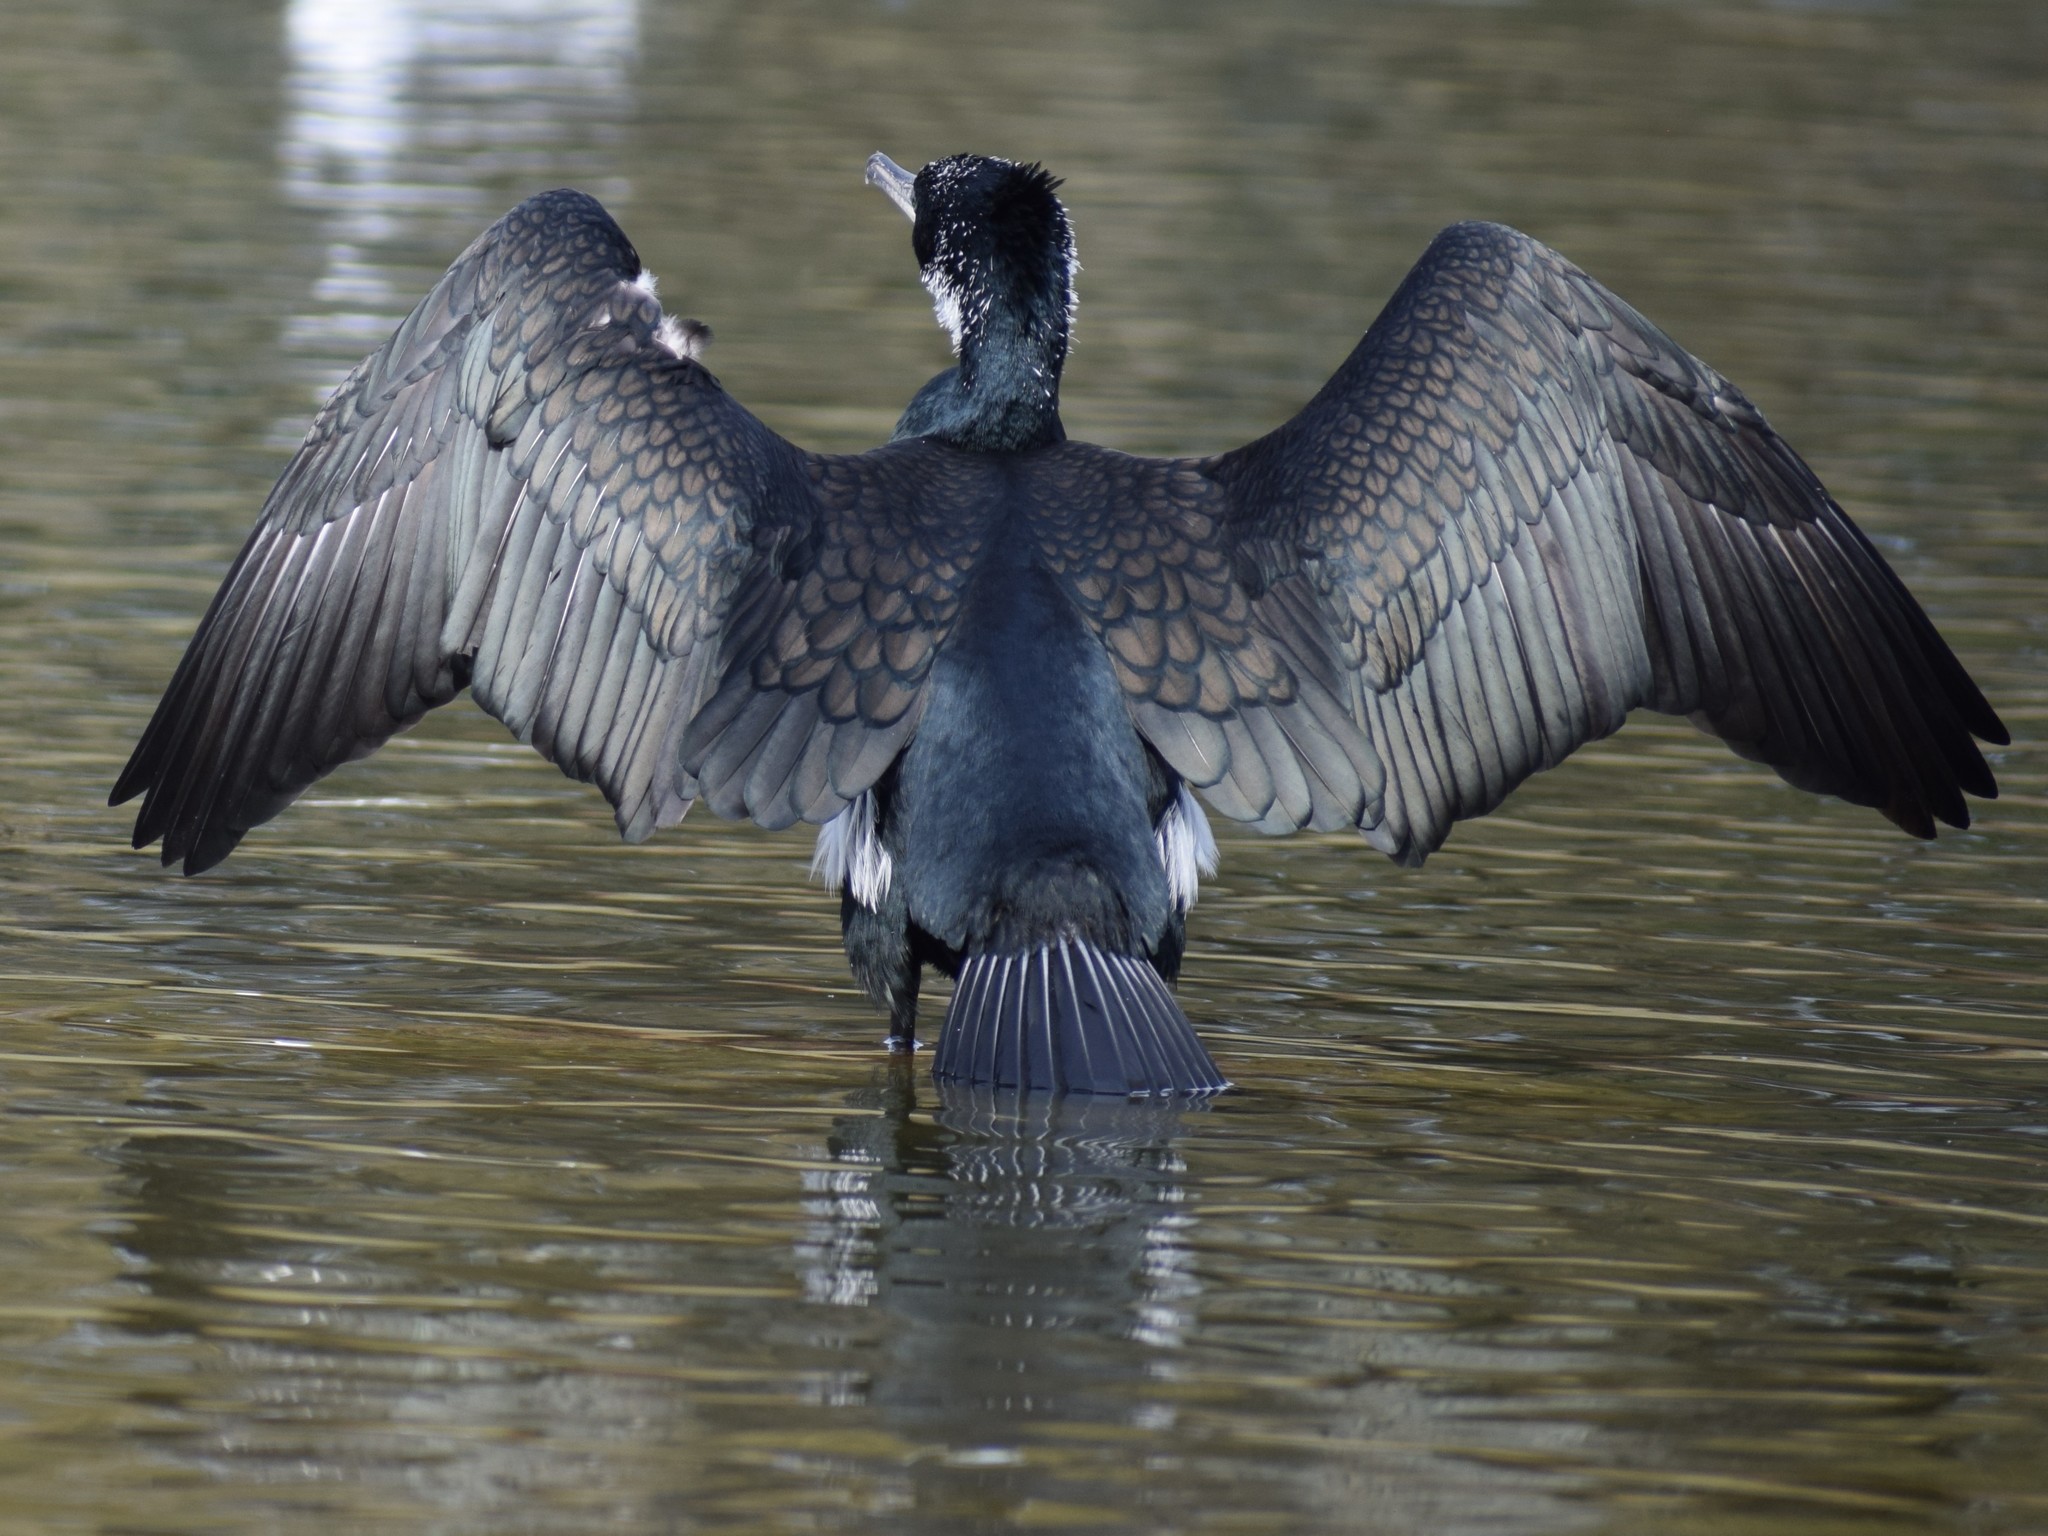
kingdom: Animalia
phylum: Chordata
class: Aves
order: Suliformes
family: Phalacrocoracidae
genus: Phalacrocorax
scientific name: Phalacrocorax carbo
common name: Great cormorant
